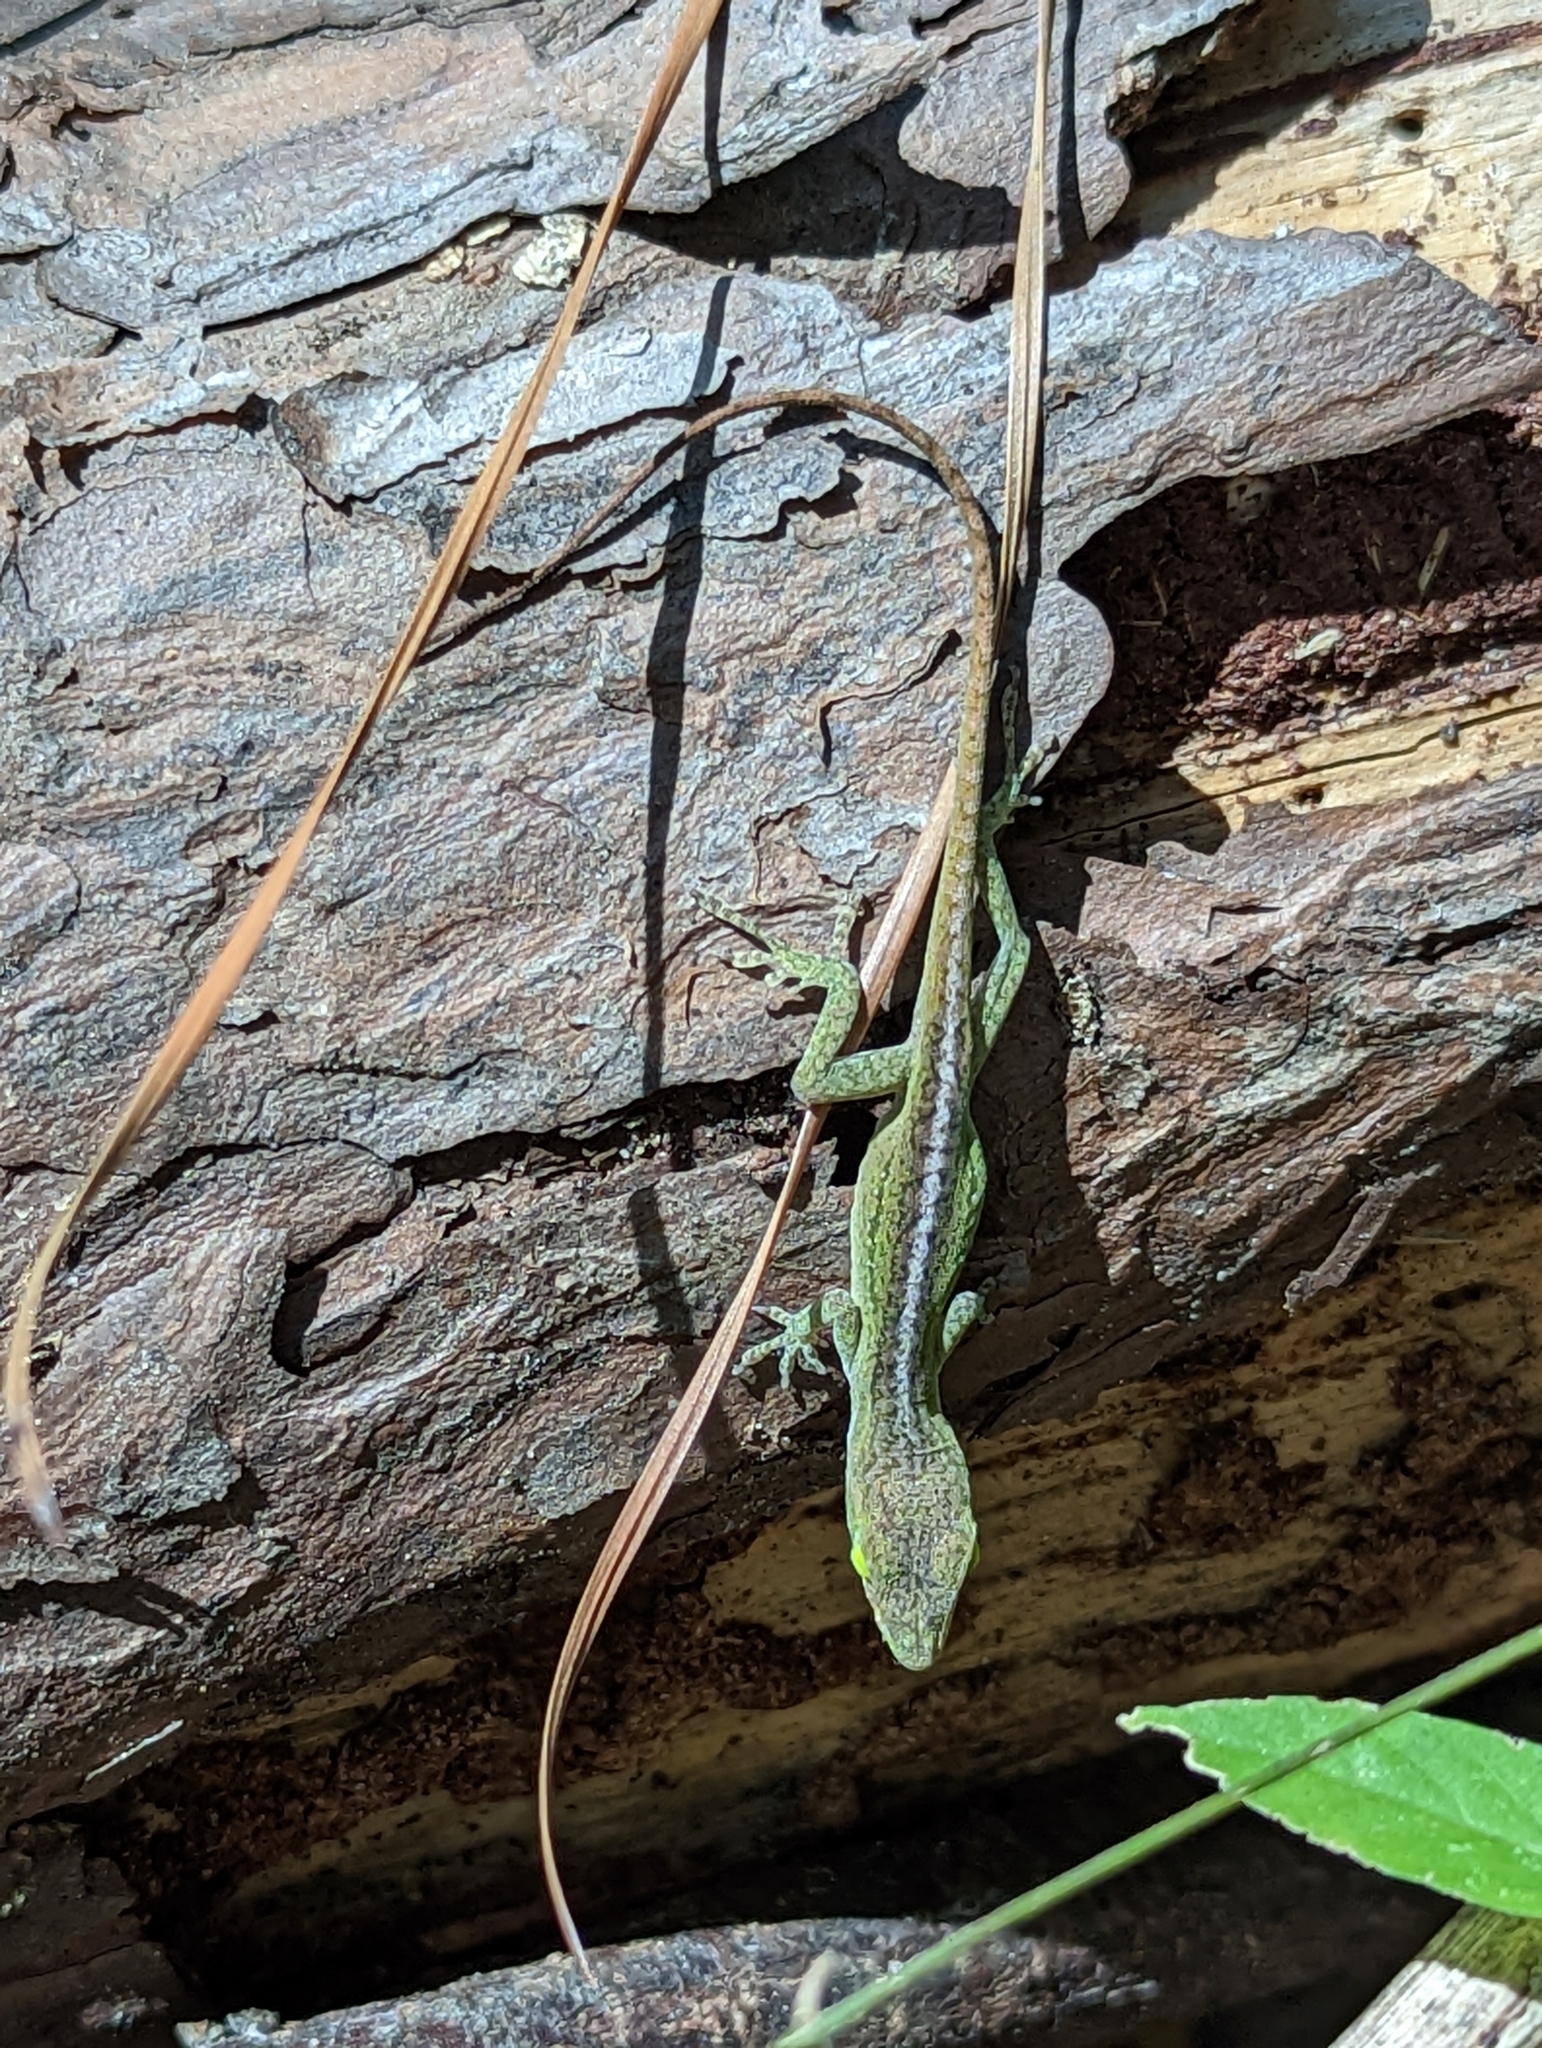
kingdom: Animalia
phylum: Chordata
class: Squamata
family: Dactyloidae
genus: Anolis
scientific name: Anolis carolinensis
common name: Green anole
